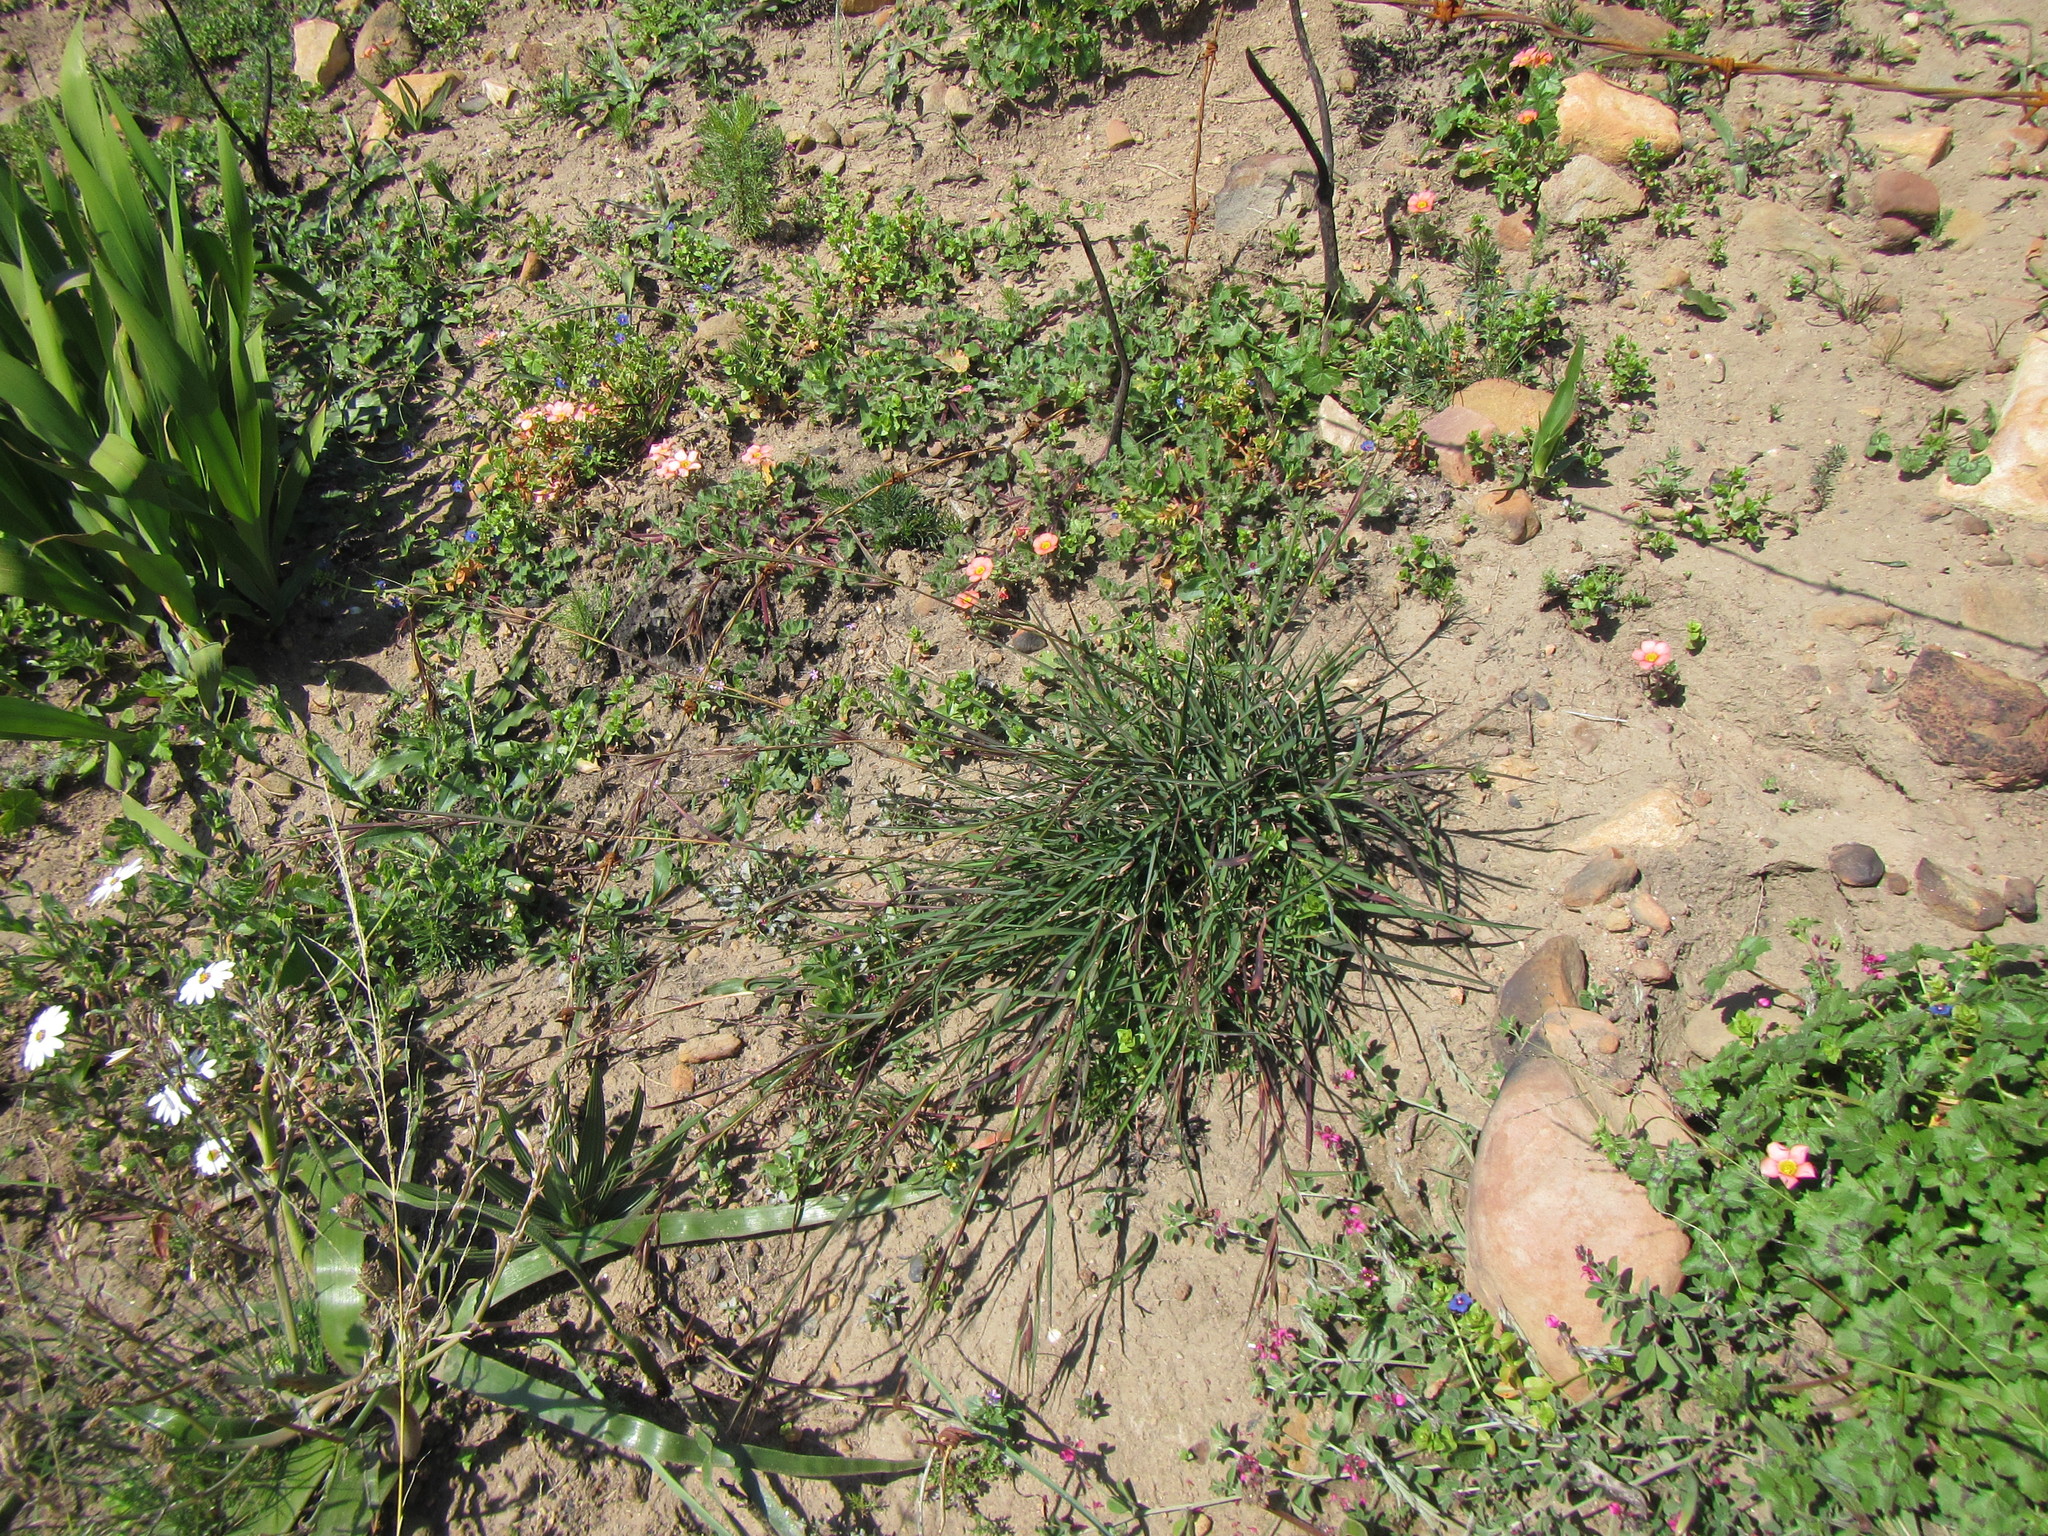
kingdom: Plantae
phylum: Tracheophyta
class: Liliopsida
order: Poales
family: Poaceae
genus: Themeda
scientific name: Themeda triandra
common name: Kangaroo grass
